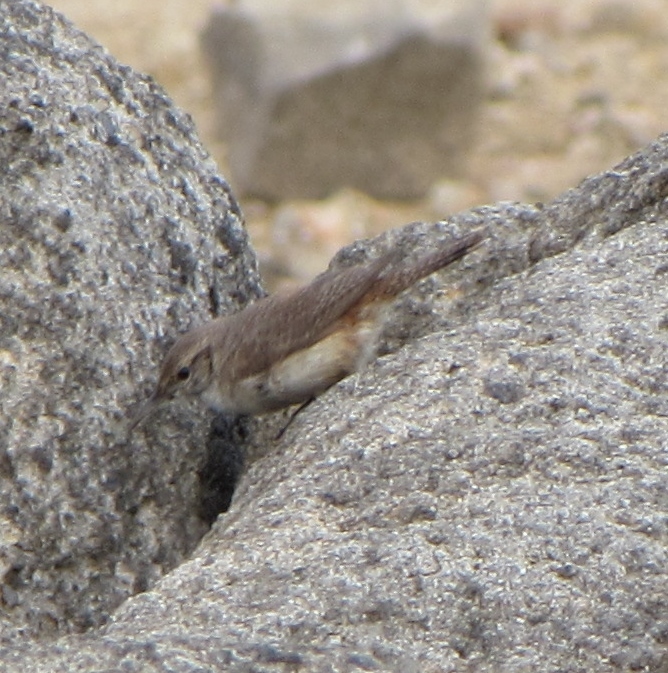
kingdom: Animalia
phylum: Chordata
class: Aves
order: Passeriformes
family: Troglodytidae
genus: Salpinctes
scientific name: Salpinctes obsoletus
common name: Rock wren
